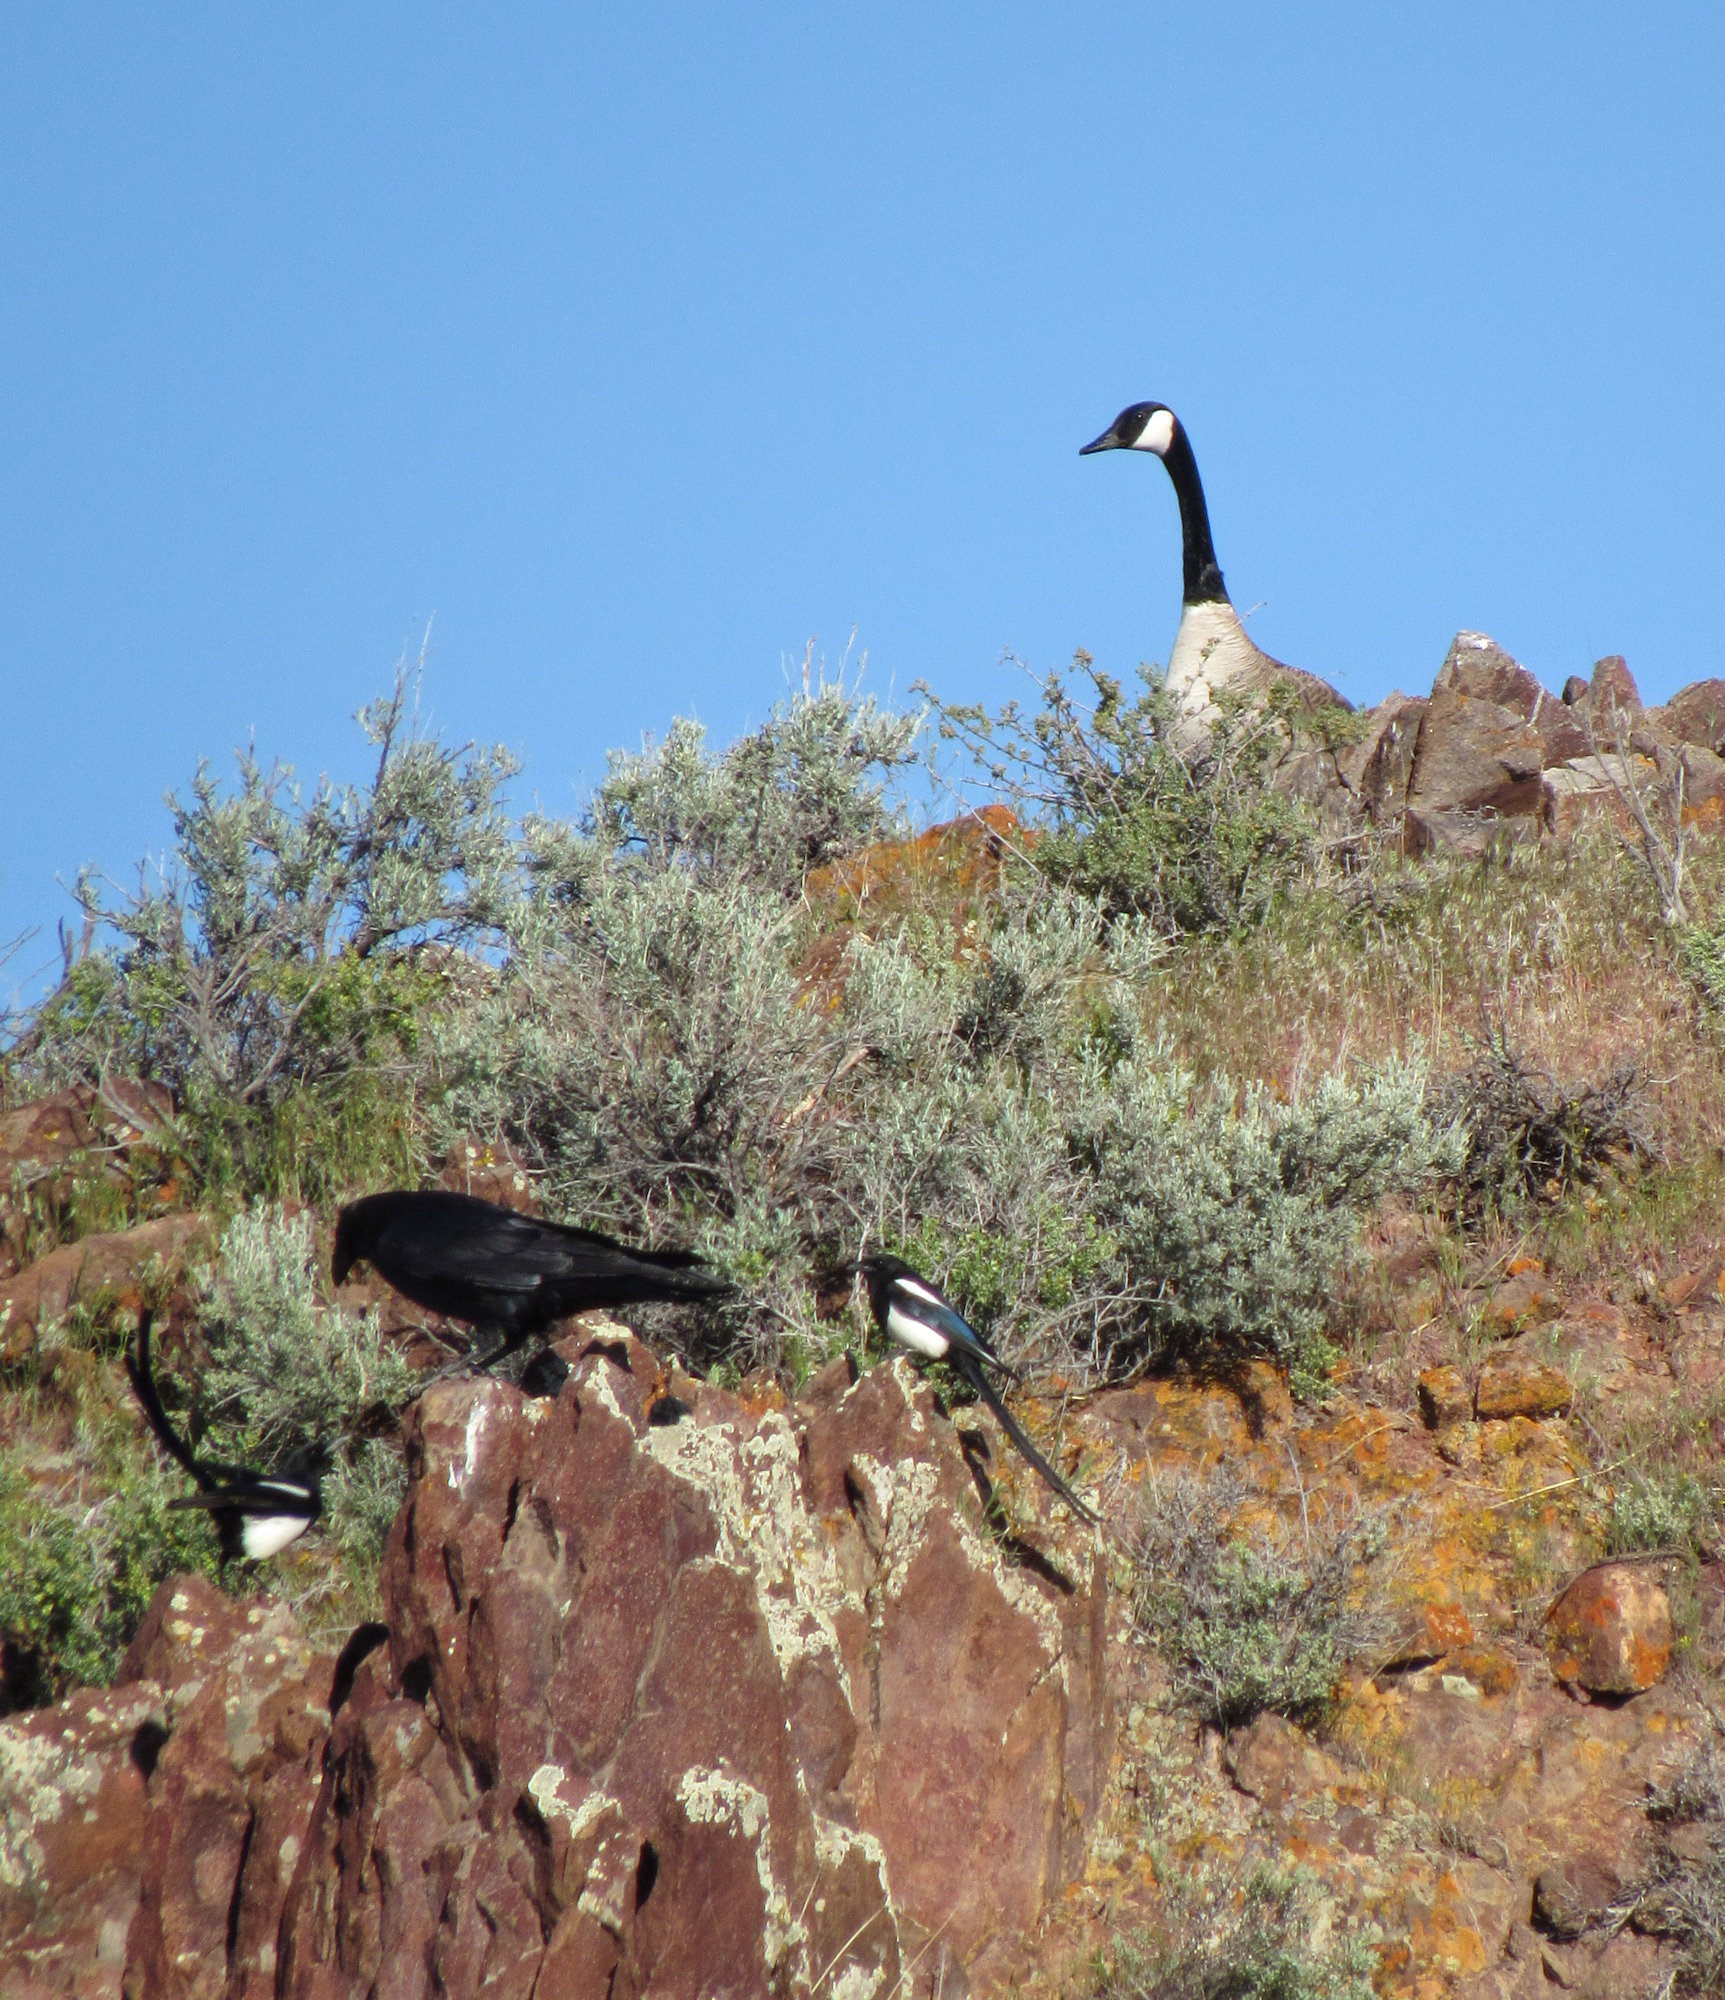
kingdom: Animalia
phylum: Chordata
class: Aves
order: Passeriformes
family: Corvidae
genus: Pica
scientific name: Pica hudsonia
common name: Black-billed magpie
